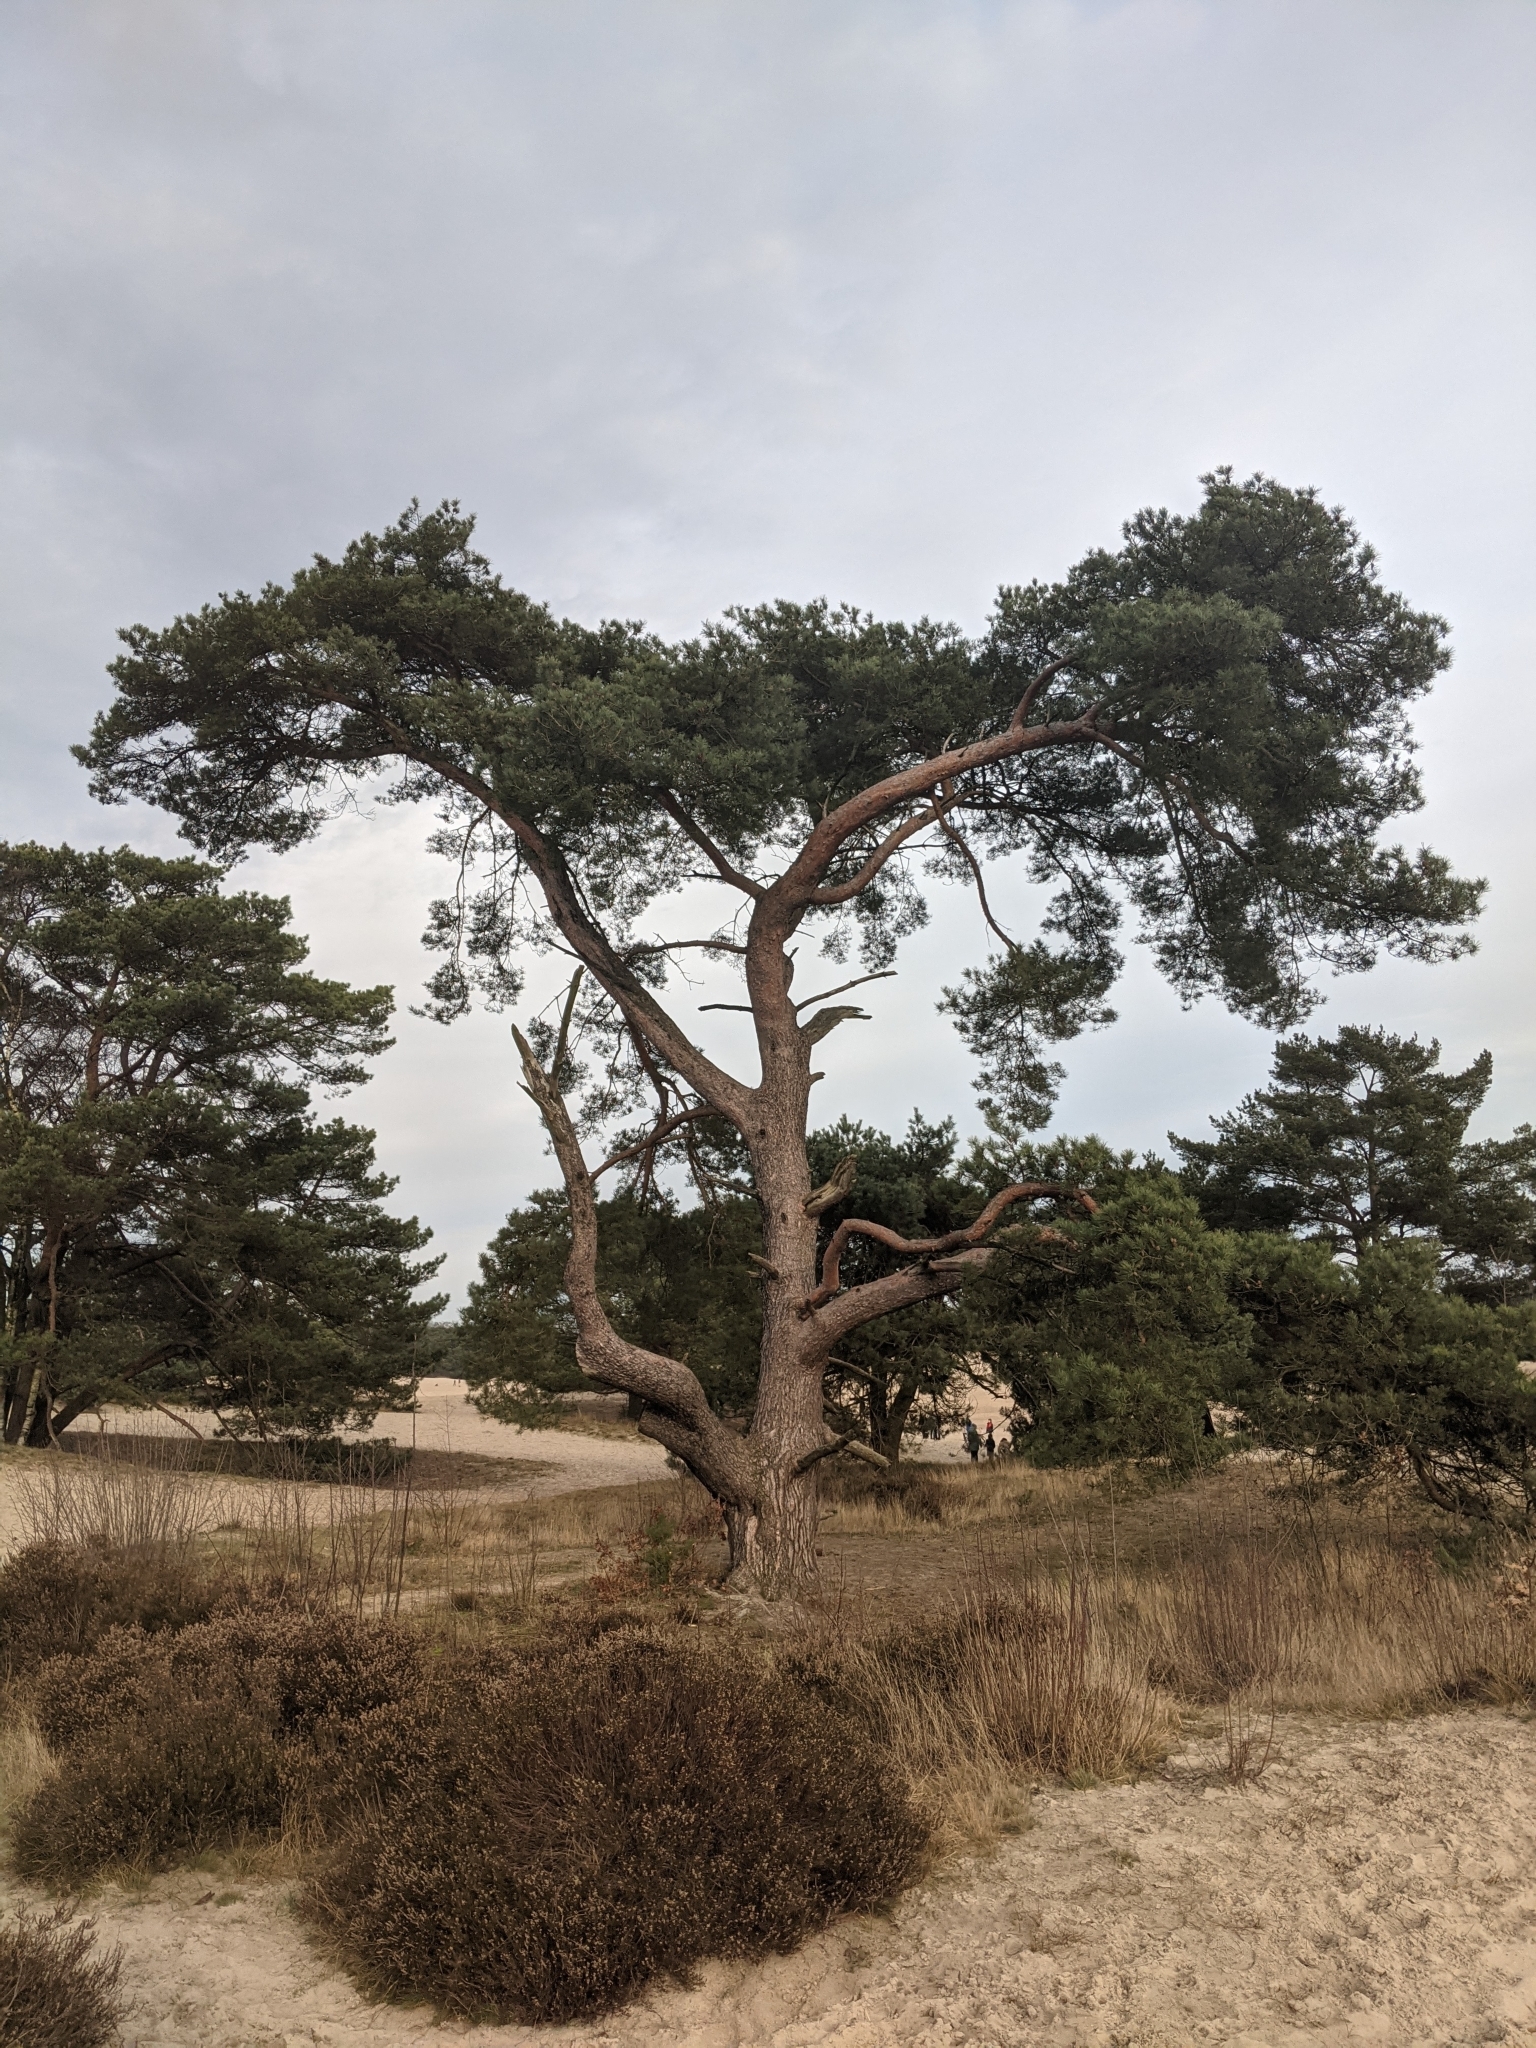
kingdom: Plantae
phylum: Tracheophyta
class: Pinopsida
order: Pinales
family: Pinaceae
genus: Pinus
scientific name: Pinus sylvestris
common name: Scots pine
